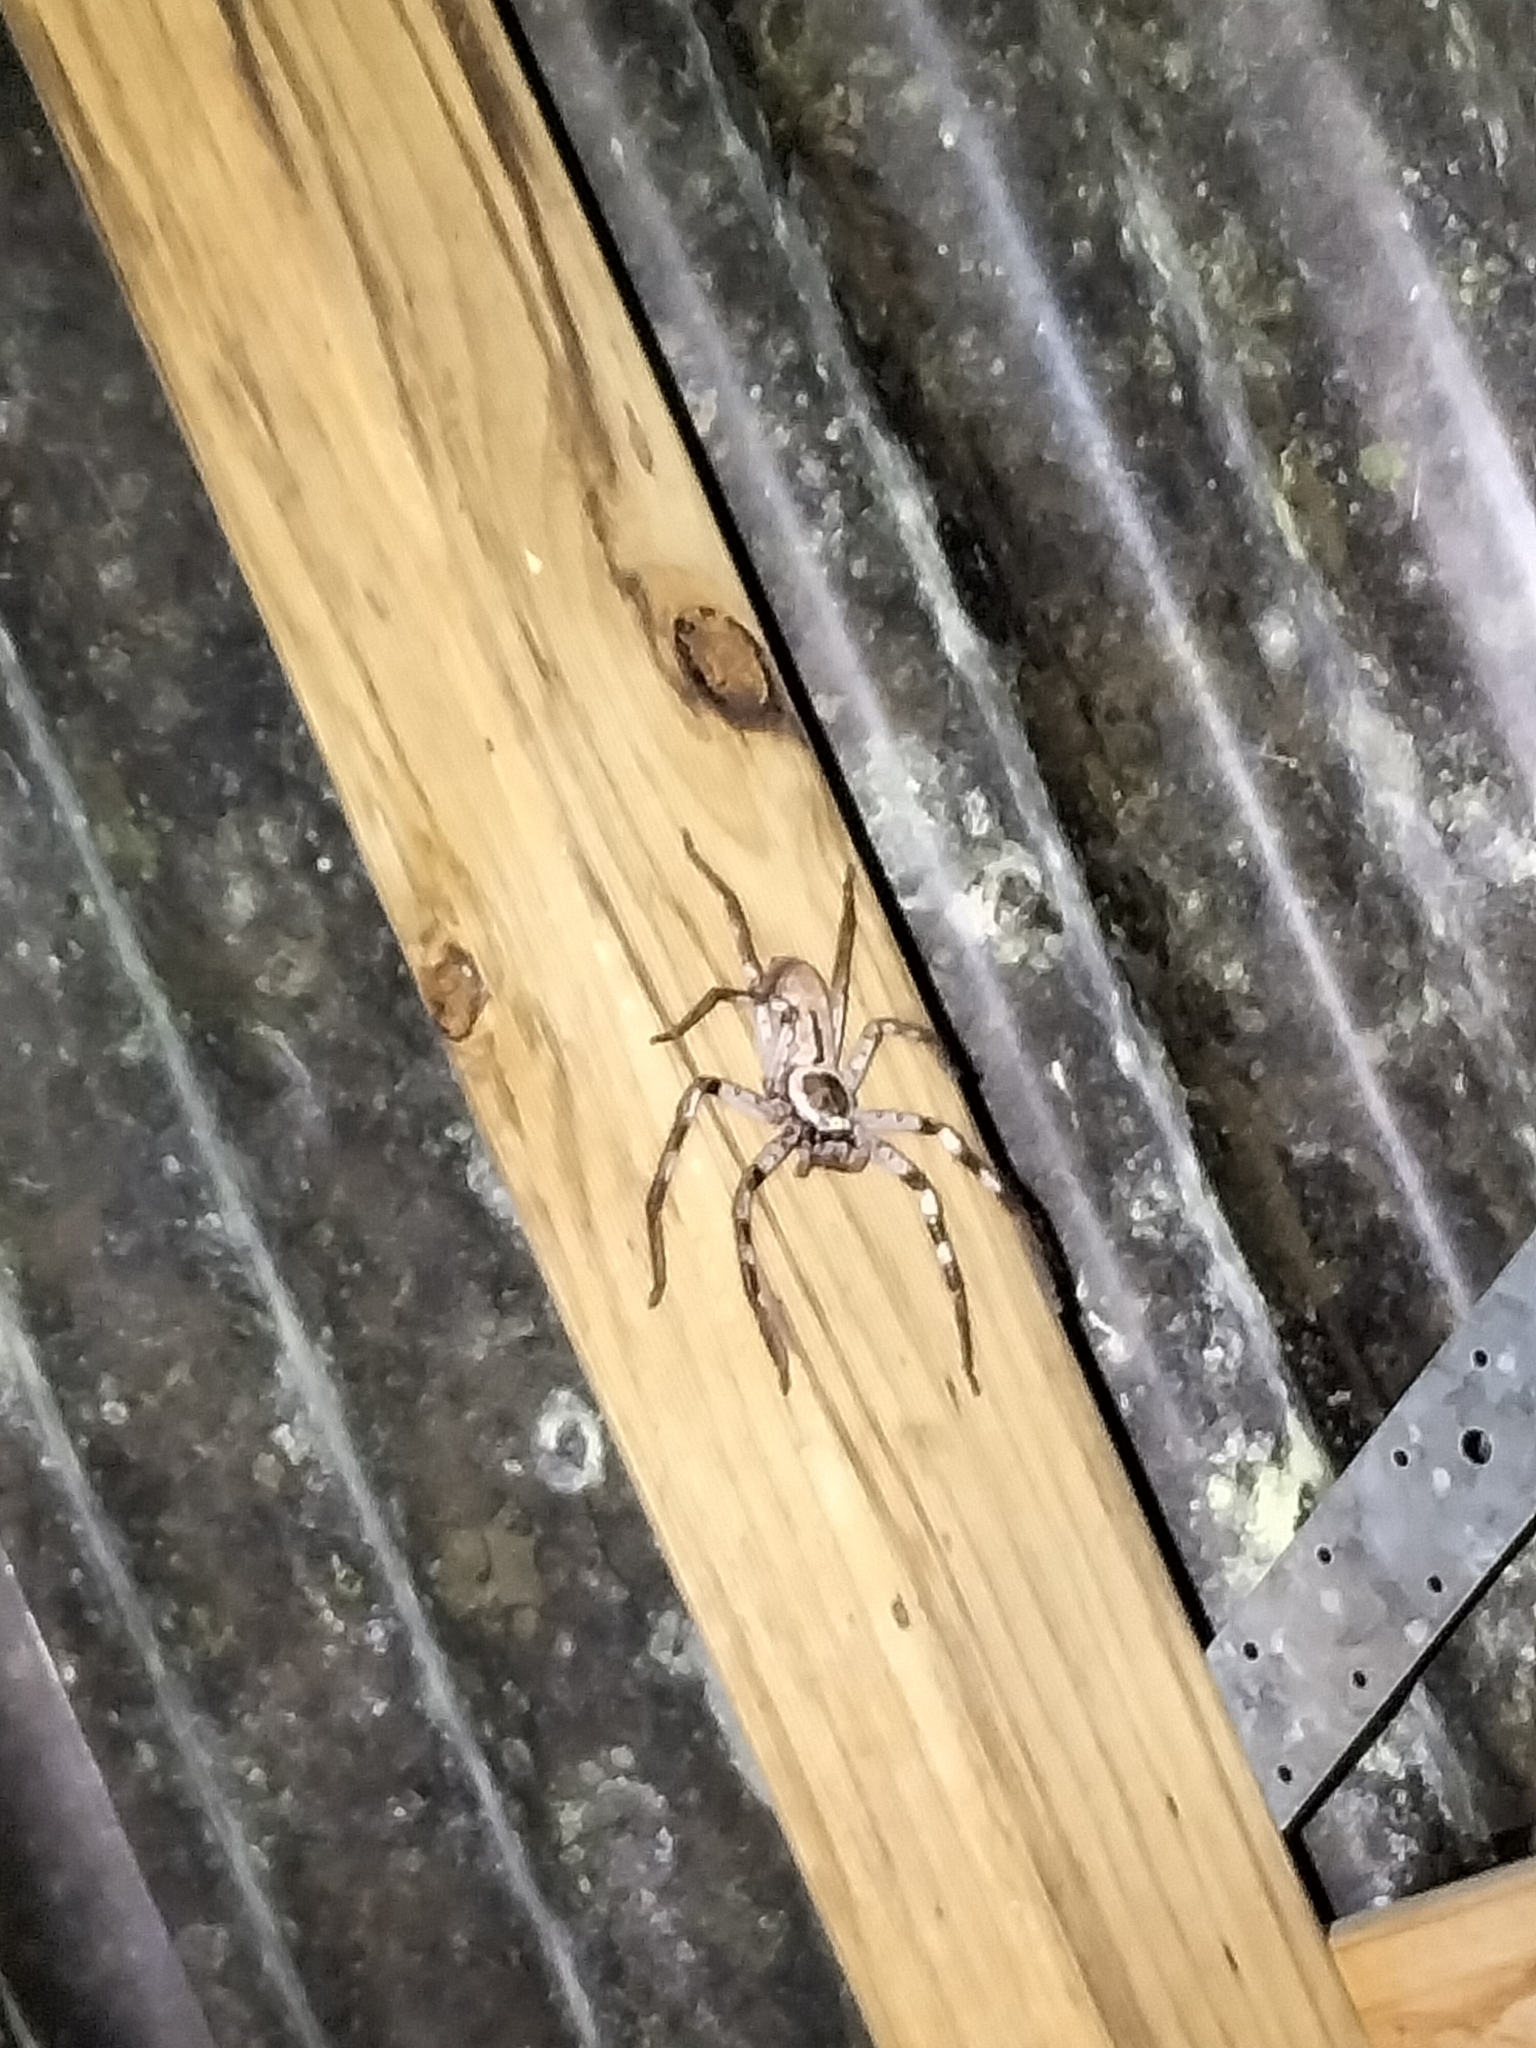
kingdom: Animalia
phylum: Arthropoda
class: Arachnida
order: Araneae
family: Sparassidae
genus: Holconia
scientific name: Holconia immanis
